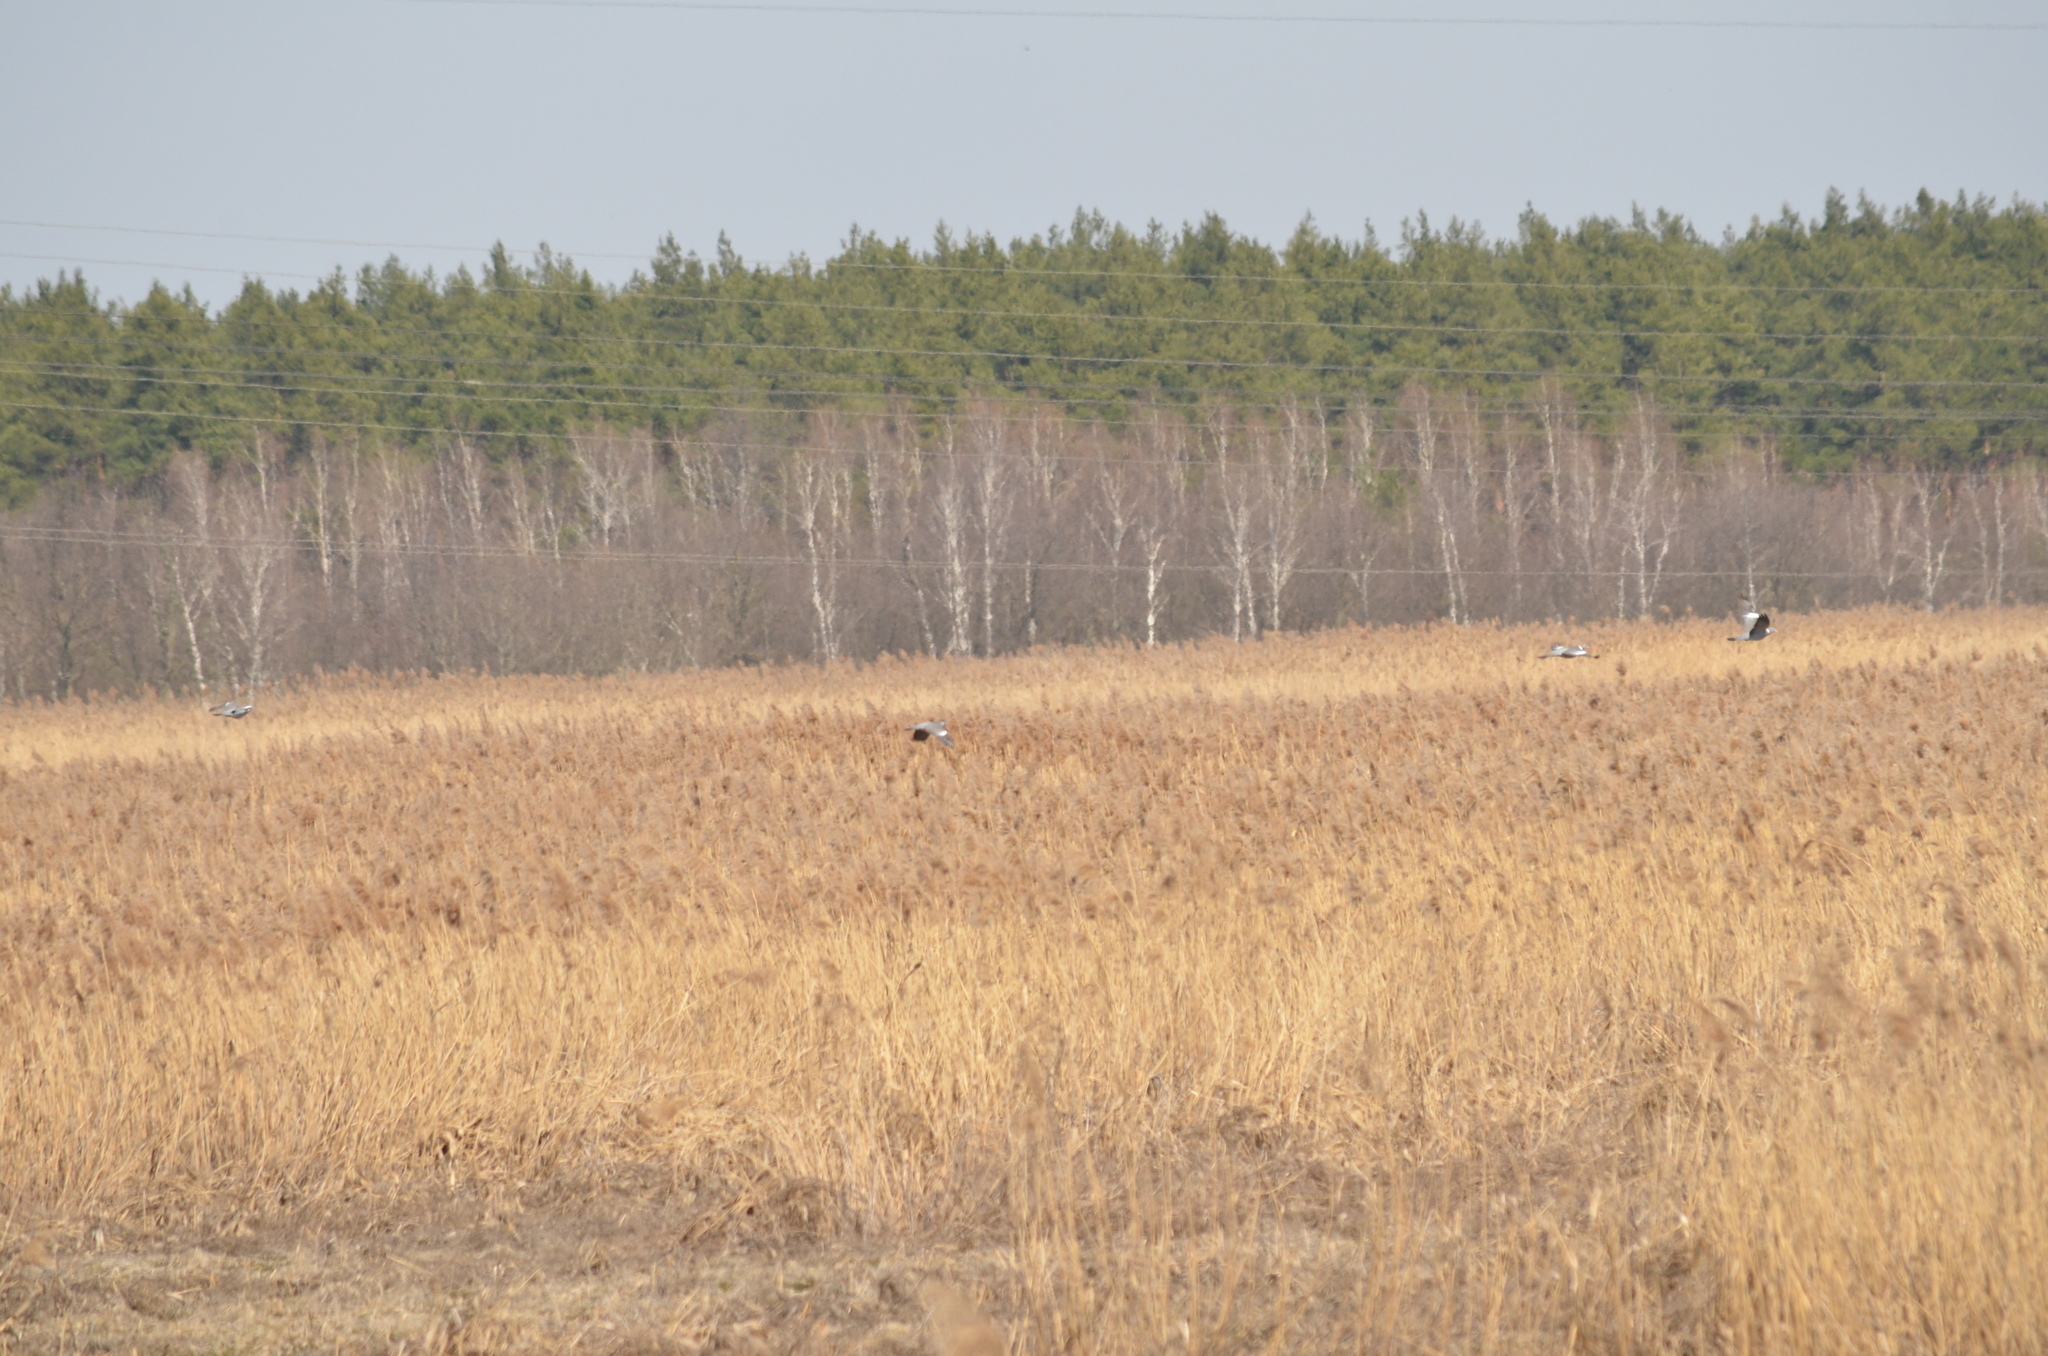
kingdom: Animalia
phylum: Chordata
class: Aves
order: Columbiformes
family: Columbidae
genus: Columba
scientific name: Columba palumbus
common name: Common wood pigeon
